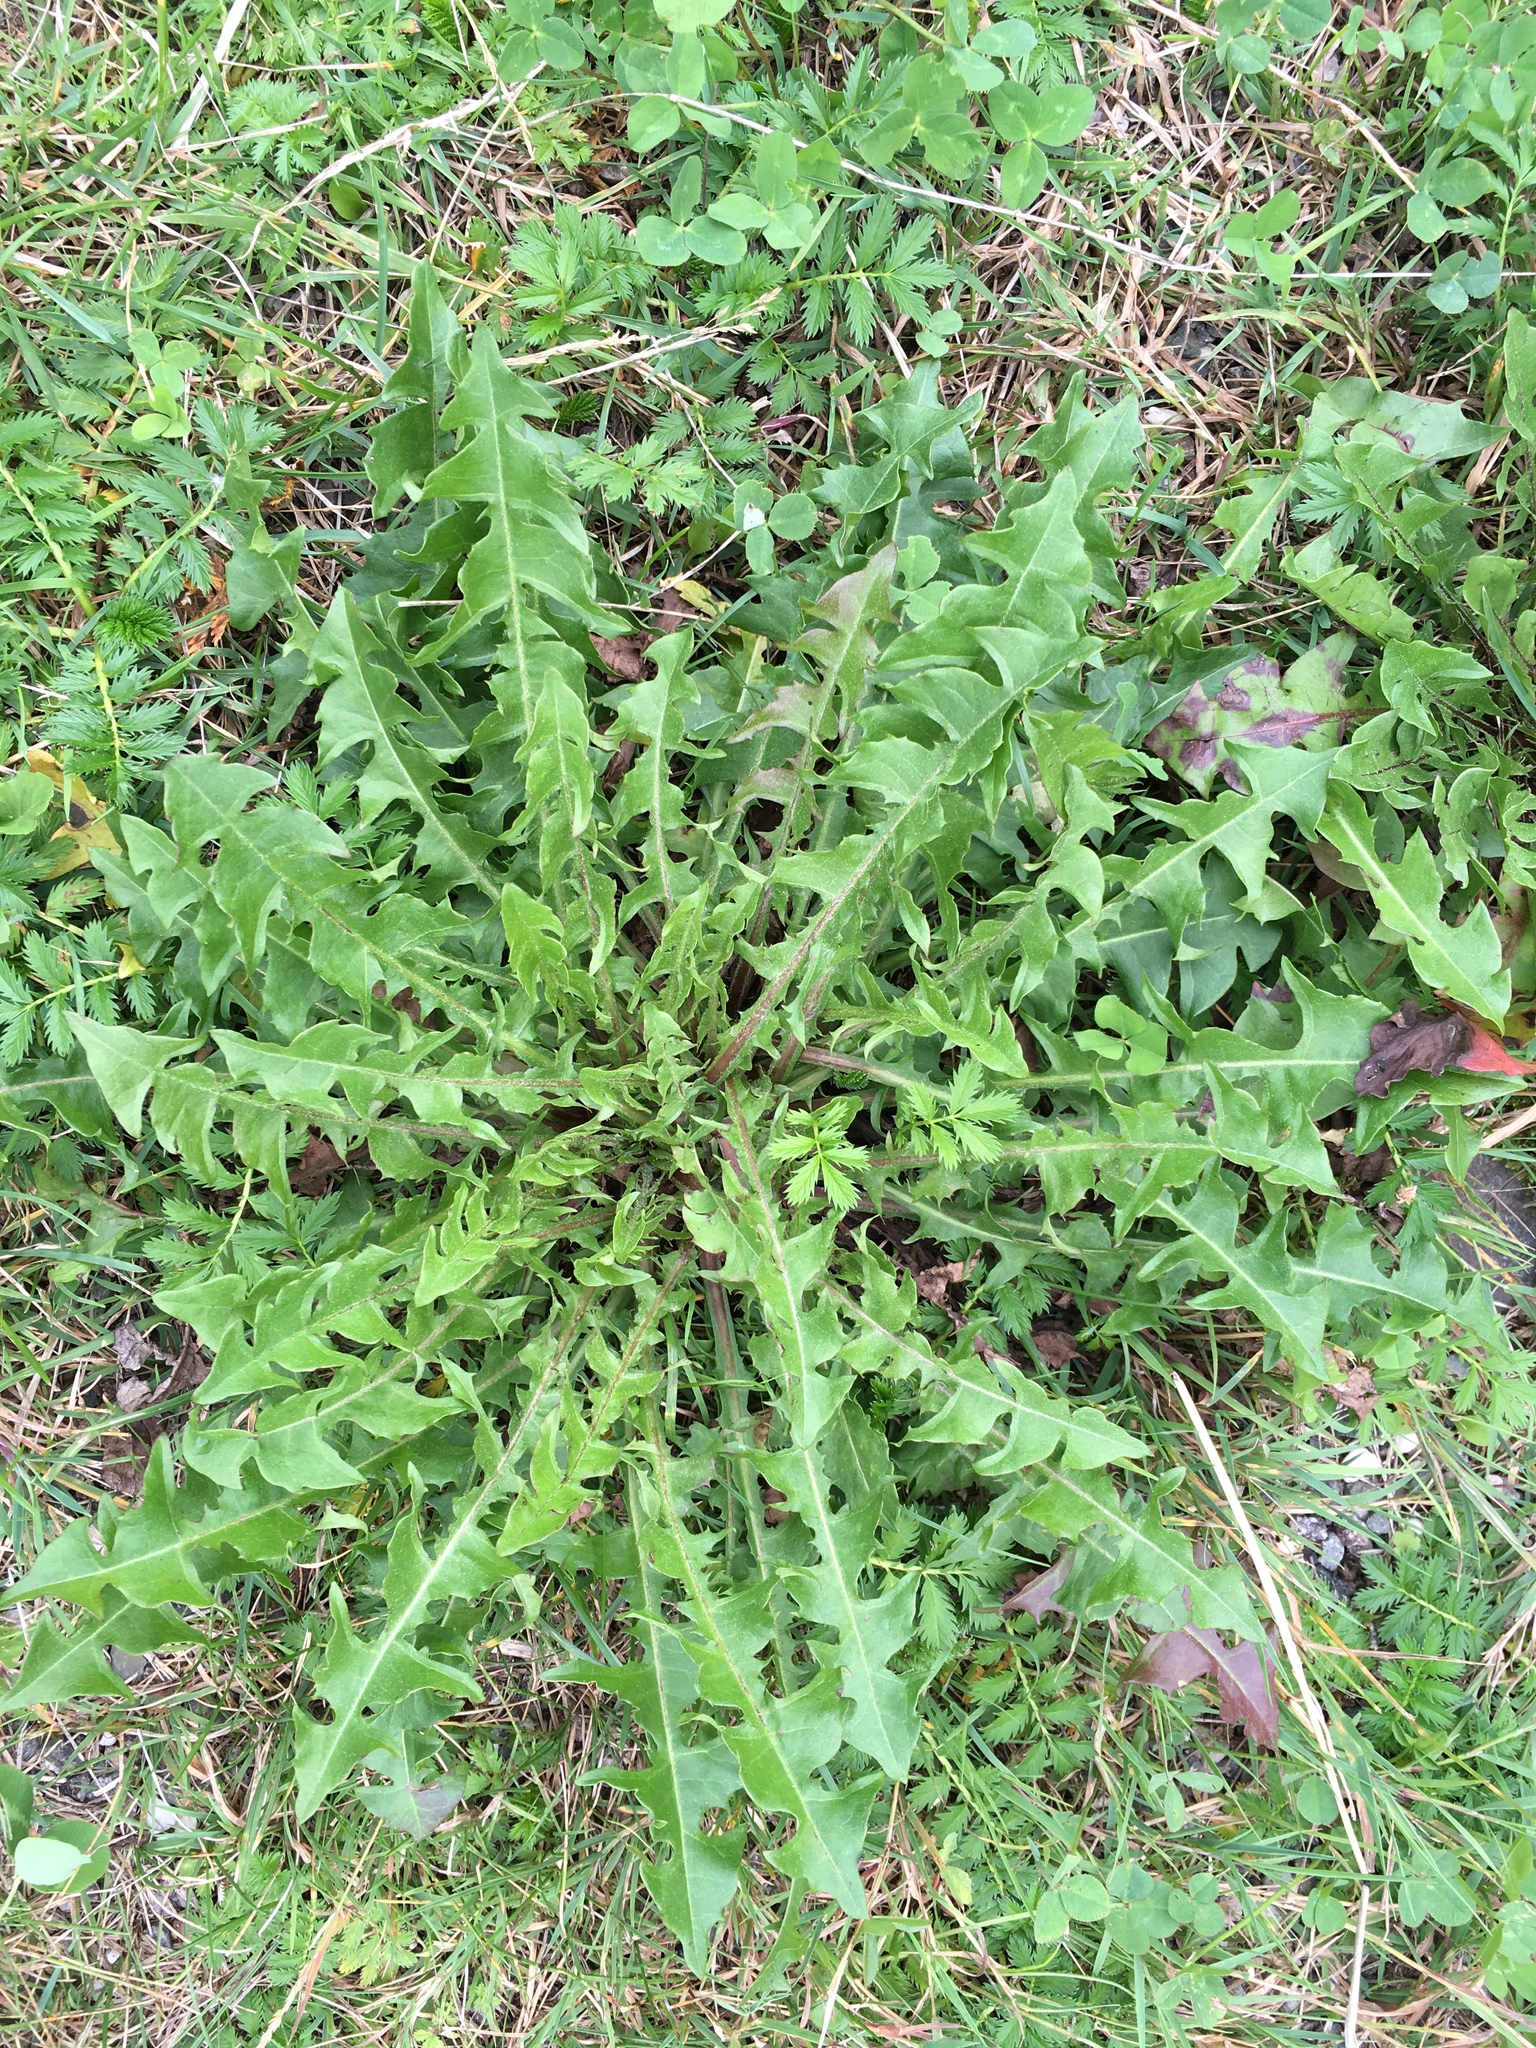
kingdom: Plantae
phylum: Tracheophyta
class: Magnoliopsida
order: Asterales
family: Asteraceae
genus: Taraxacum
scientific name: Taraxacum
